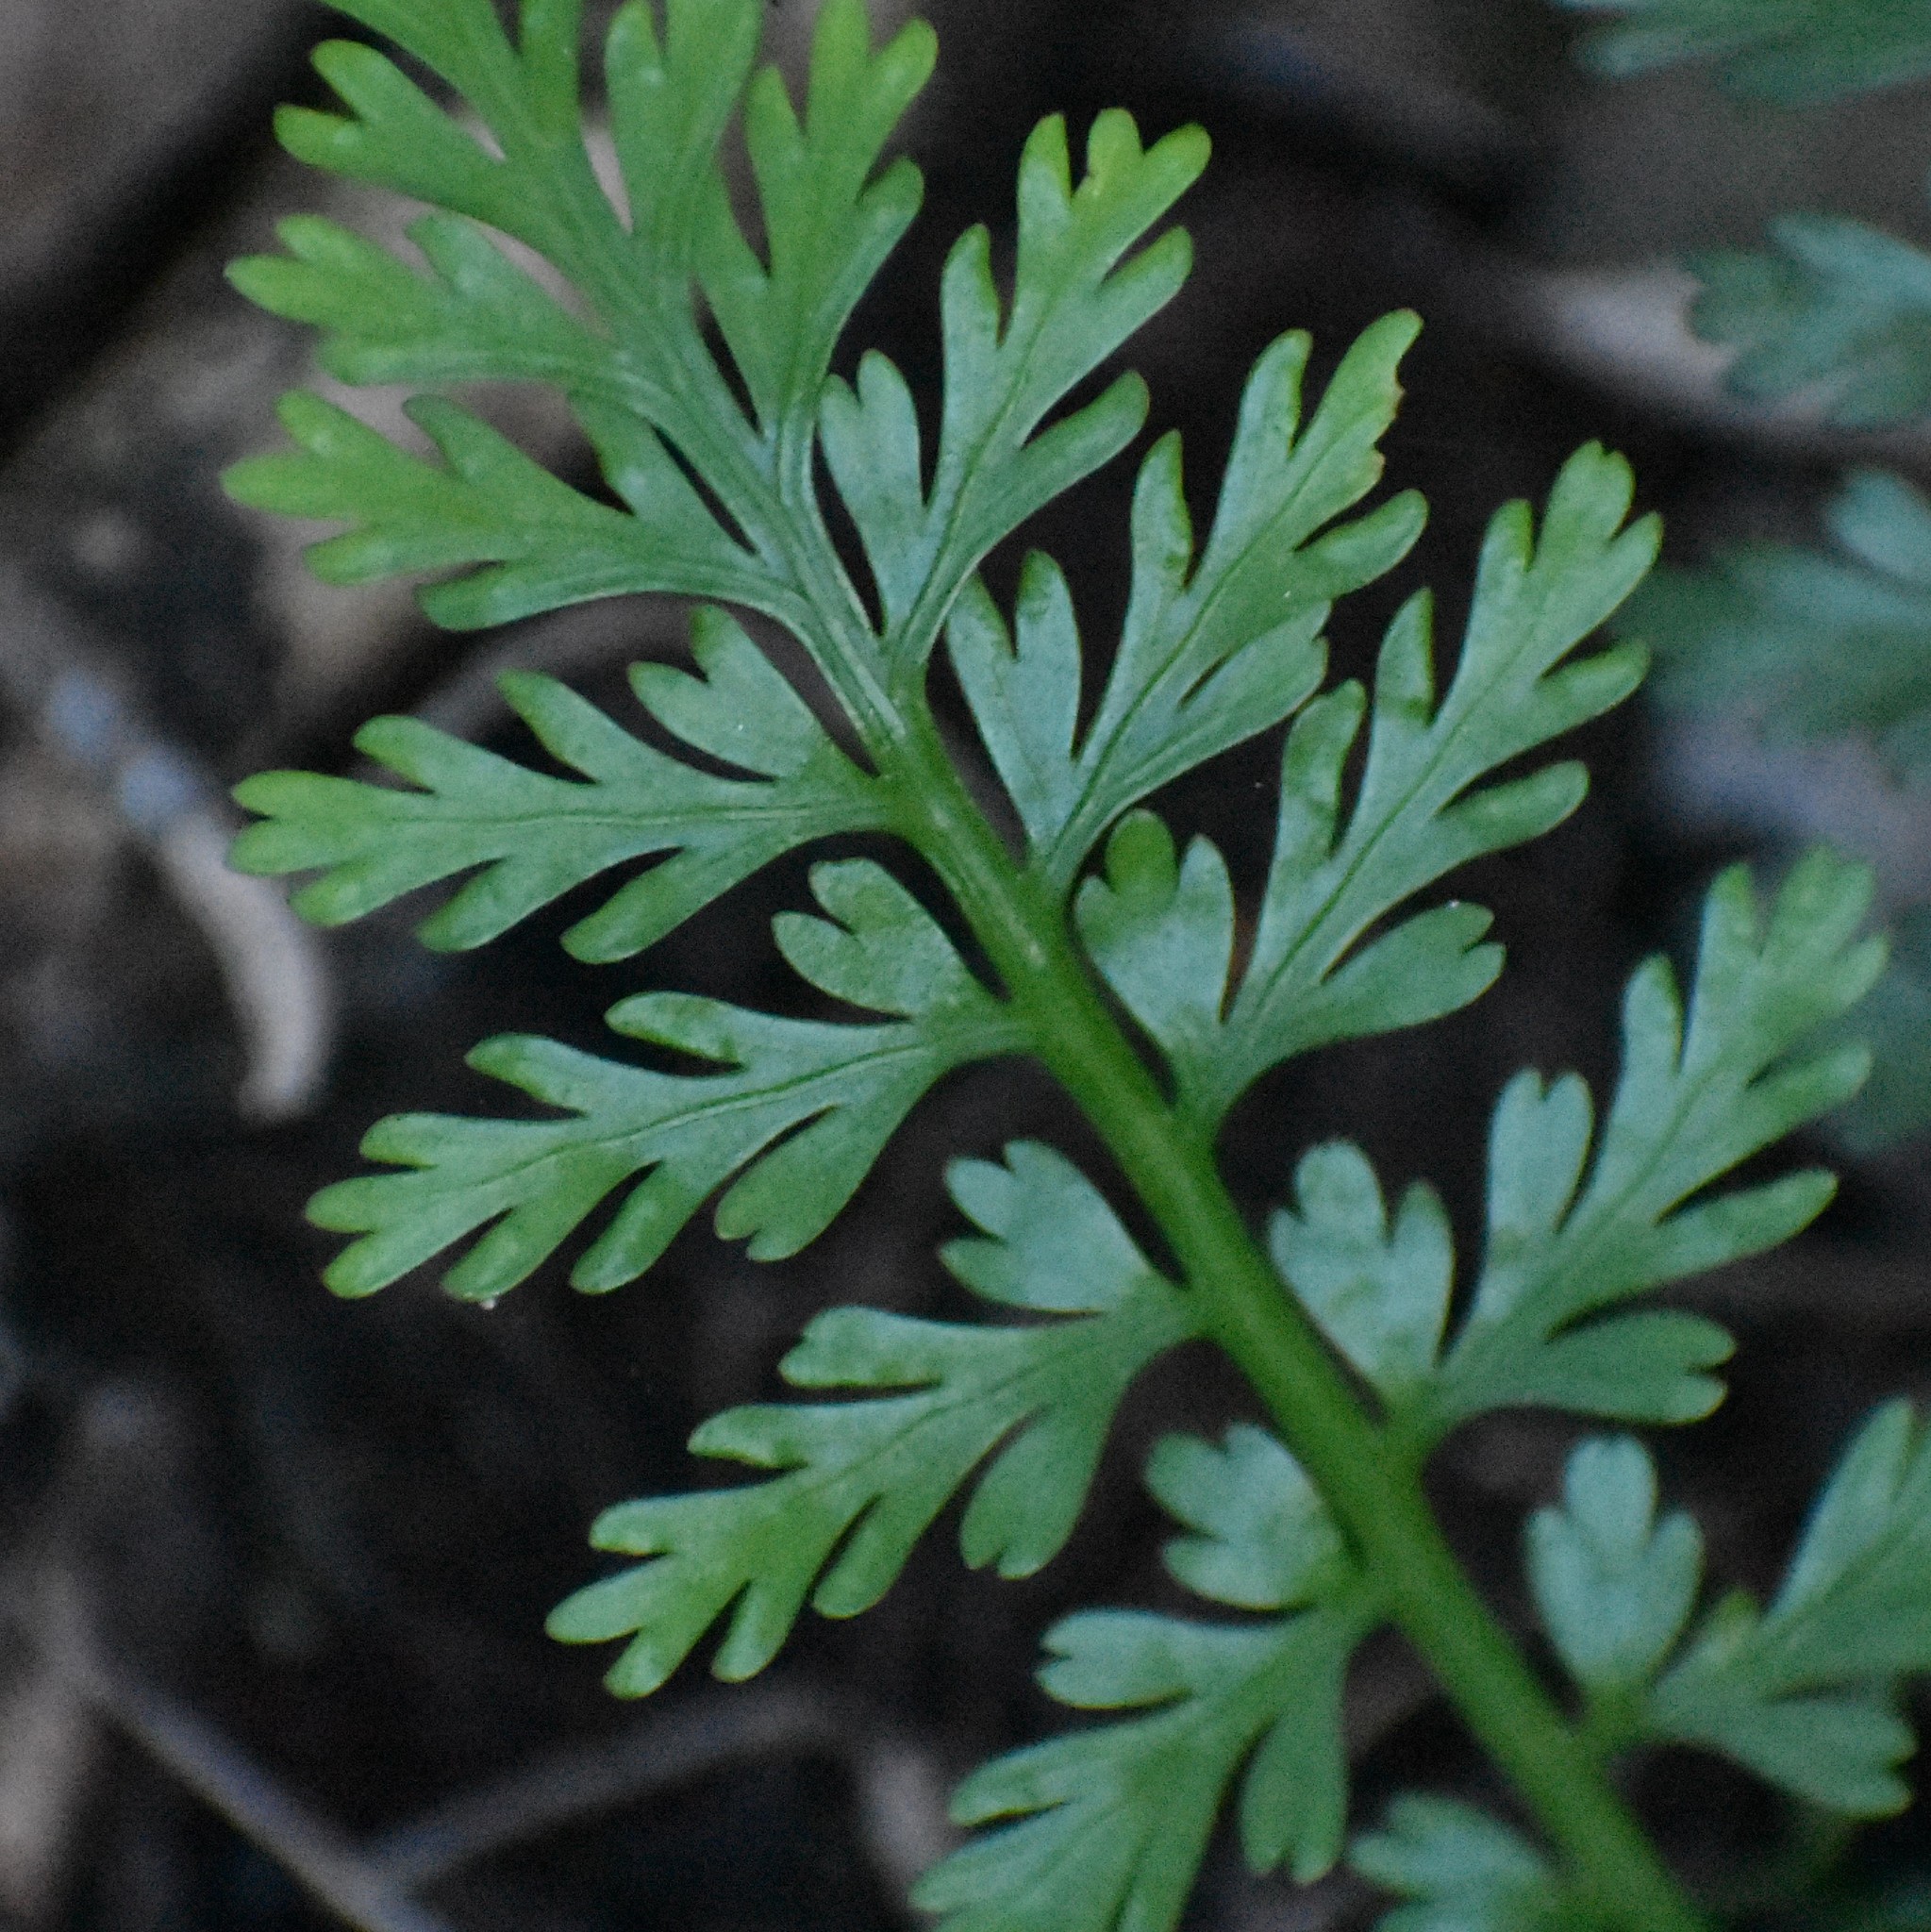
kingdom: Plantae
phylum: Tracheophyta
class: Polypodiopsida
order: Polypodiales
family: Aspleniaceae
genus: Asplenium
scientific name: Asplenium rutifolium
